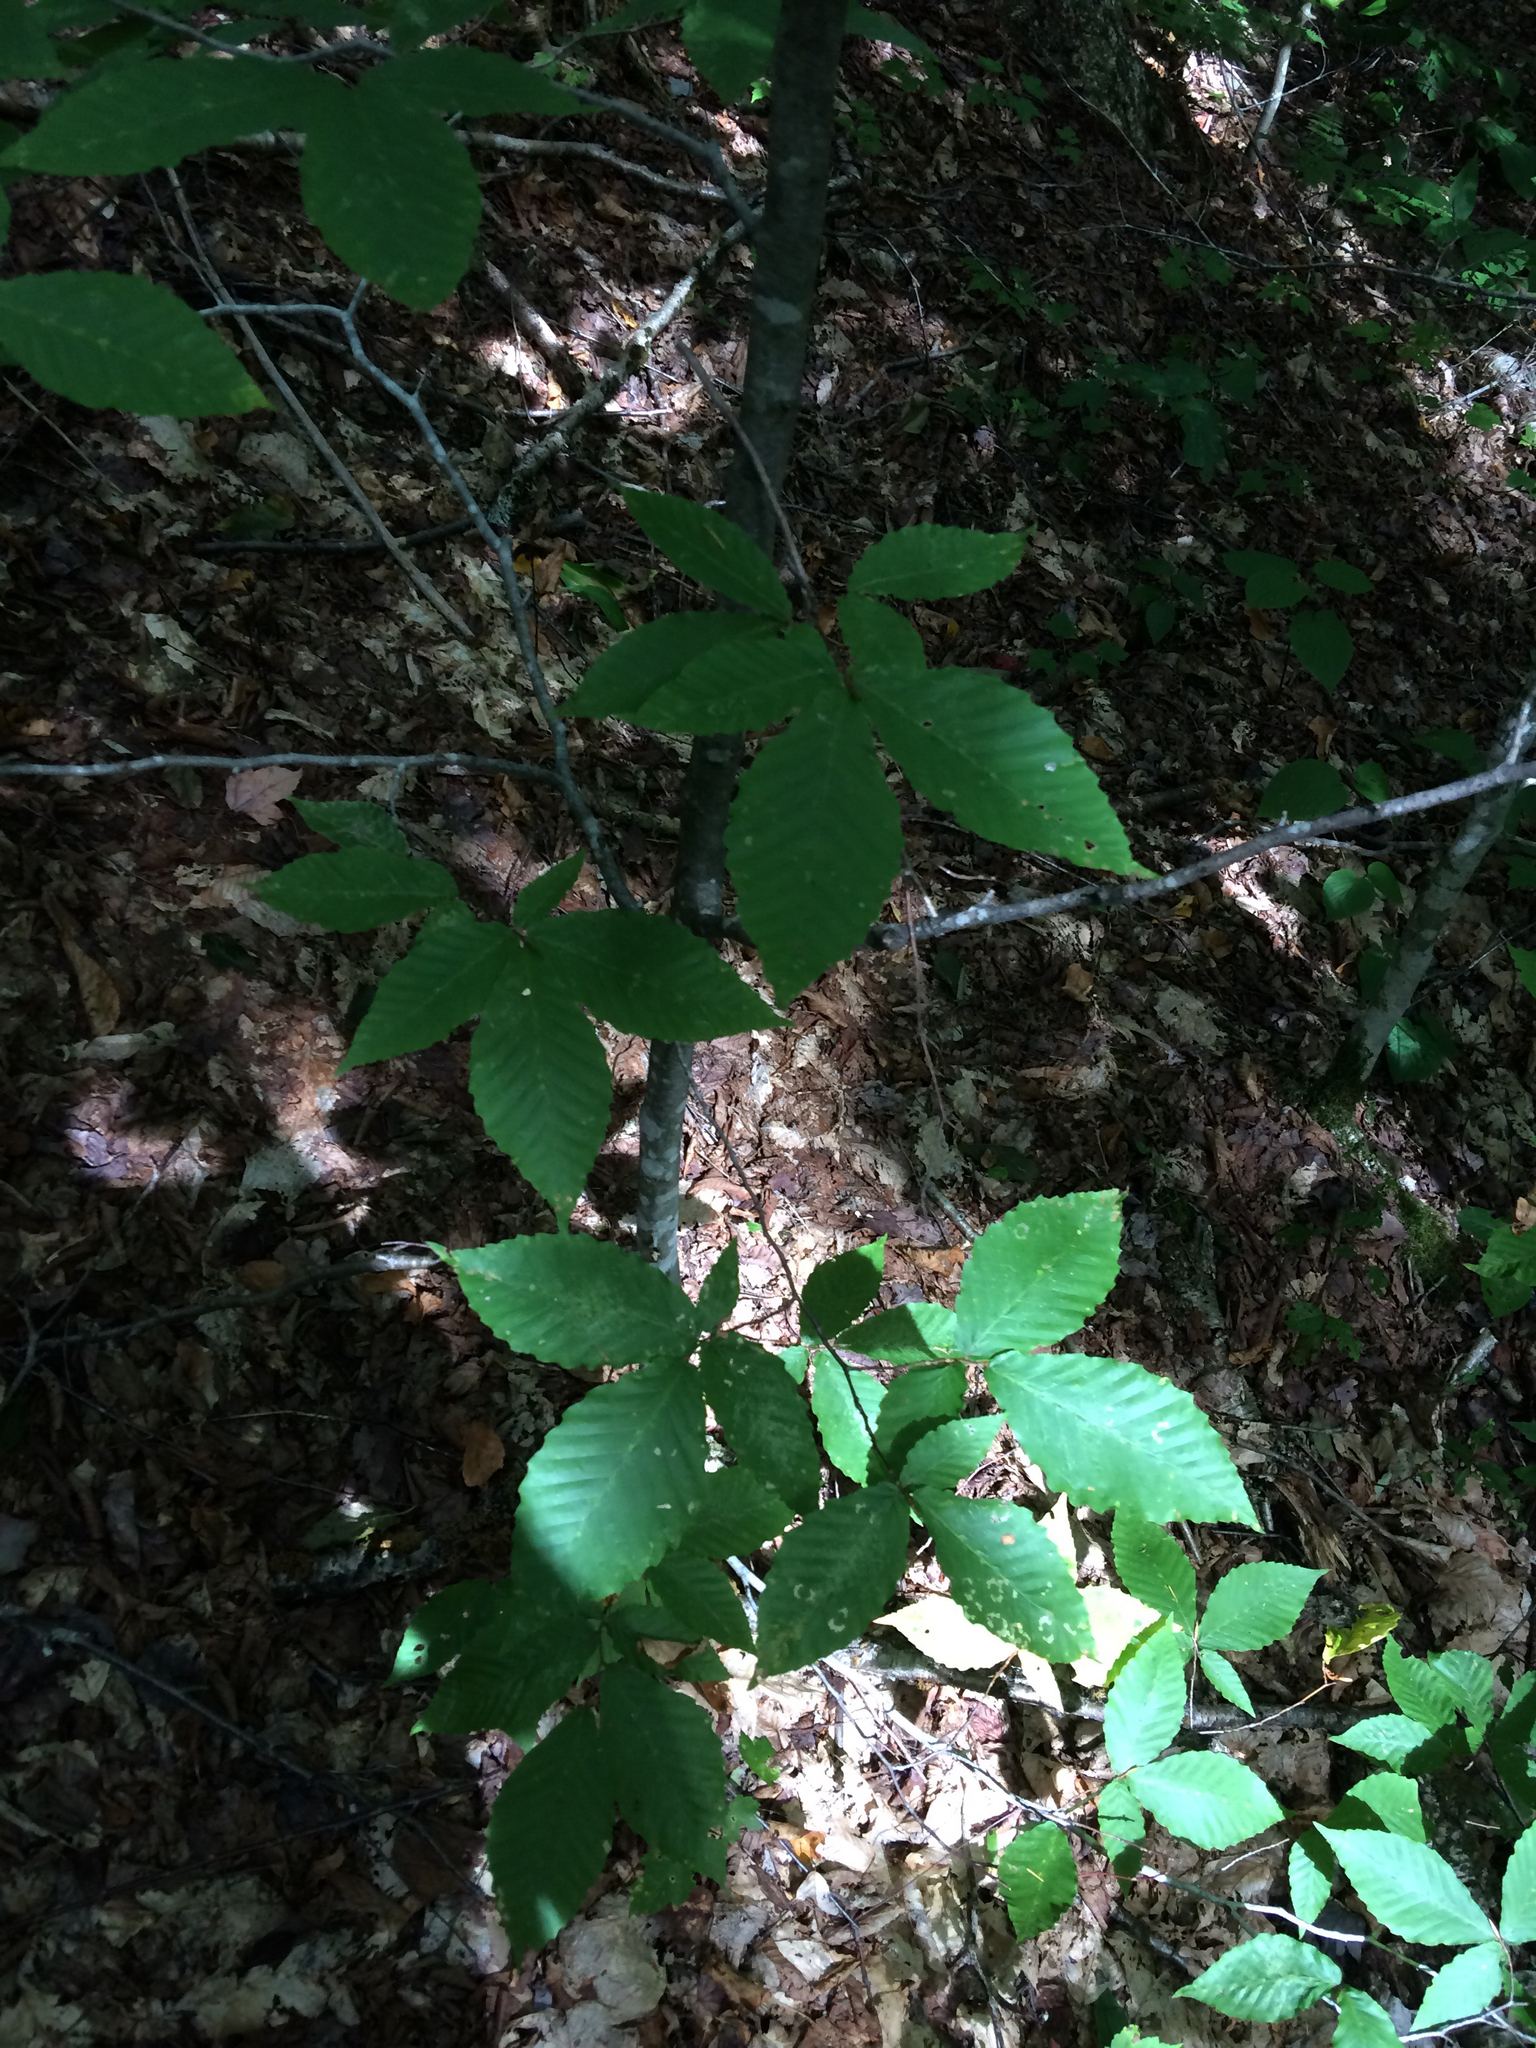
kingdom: Plantae
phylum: Tracheophyta
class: Magnoliopsida
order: Fagales
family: Fagaceae
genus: Fagus
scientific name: Fagus grandifolia
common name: American beech
